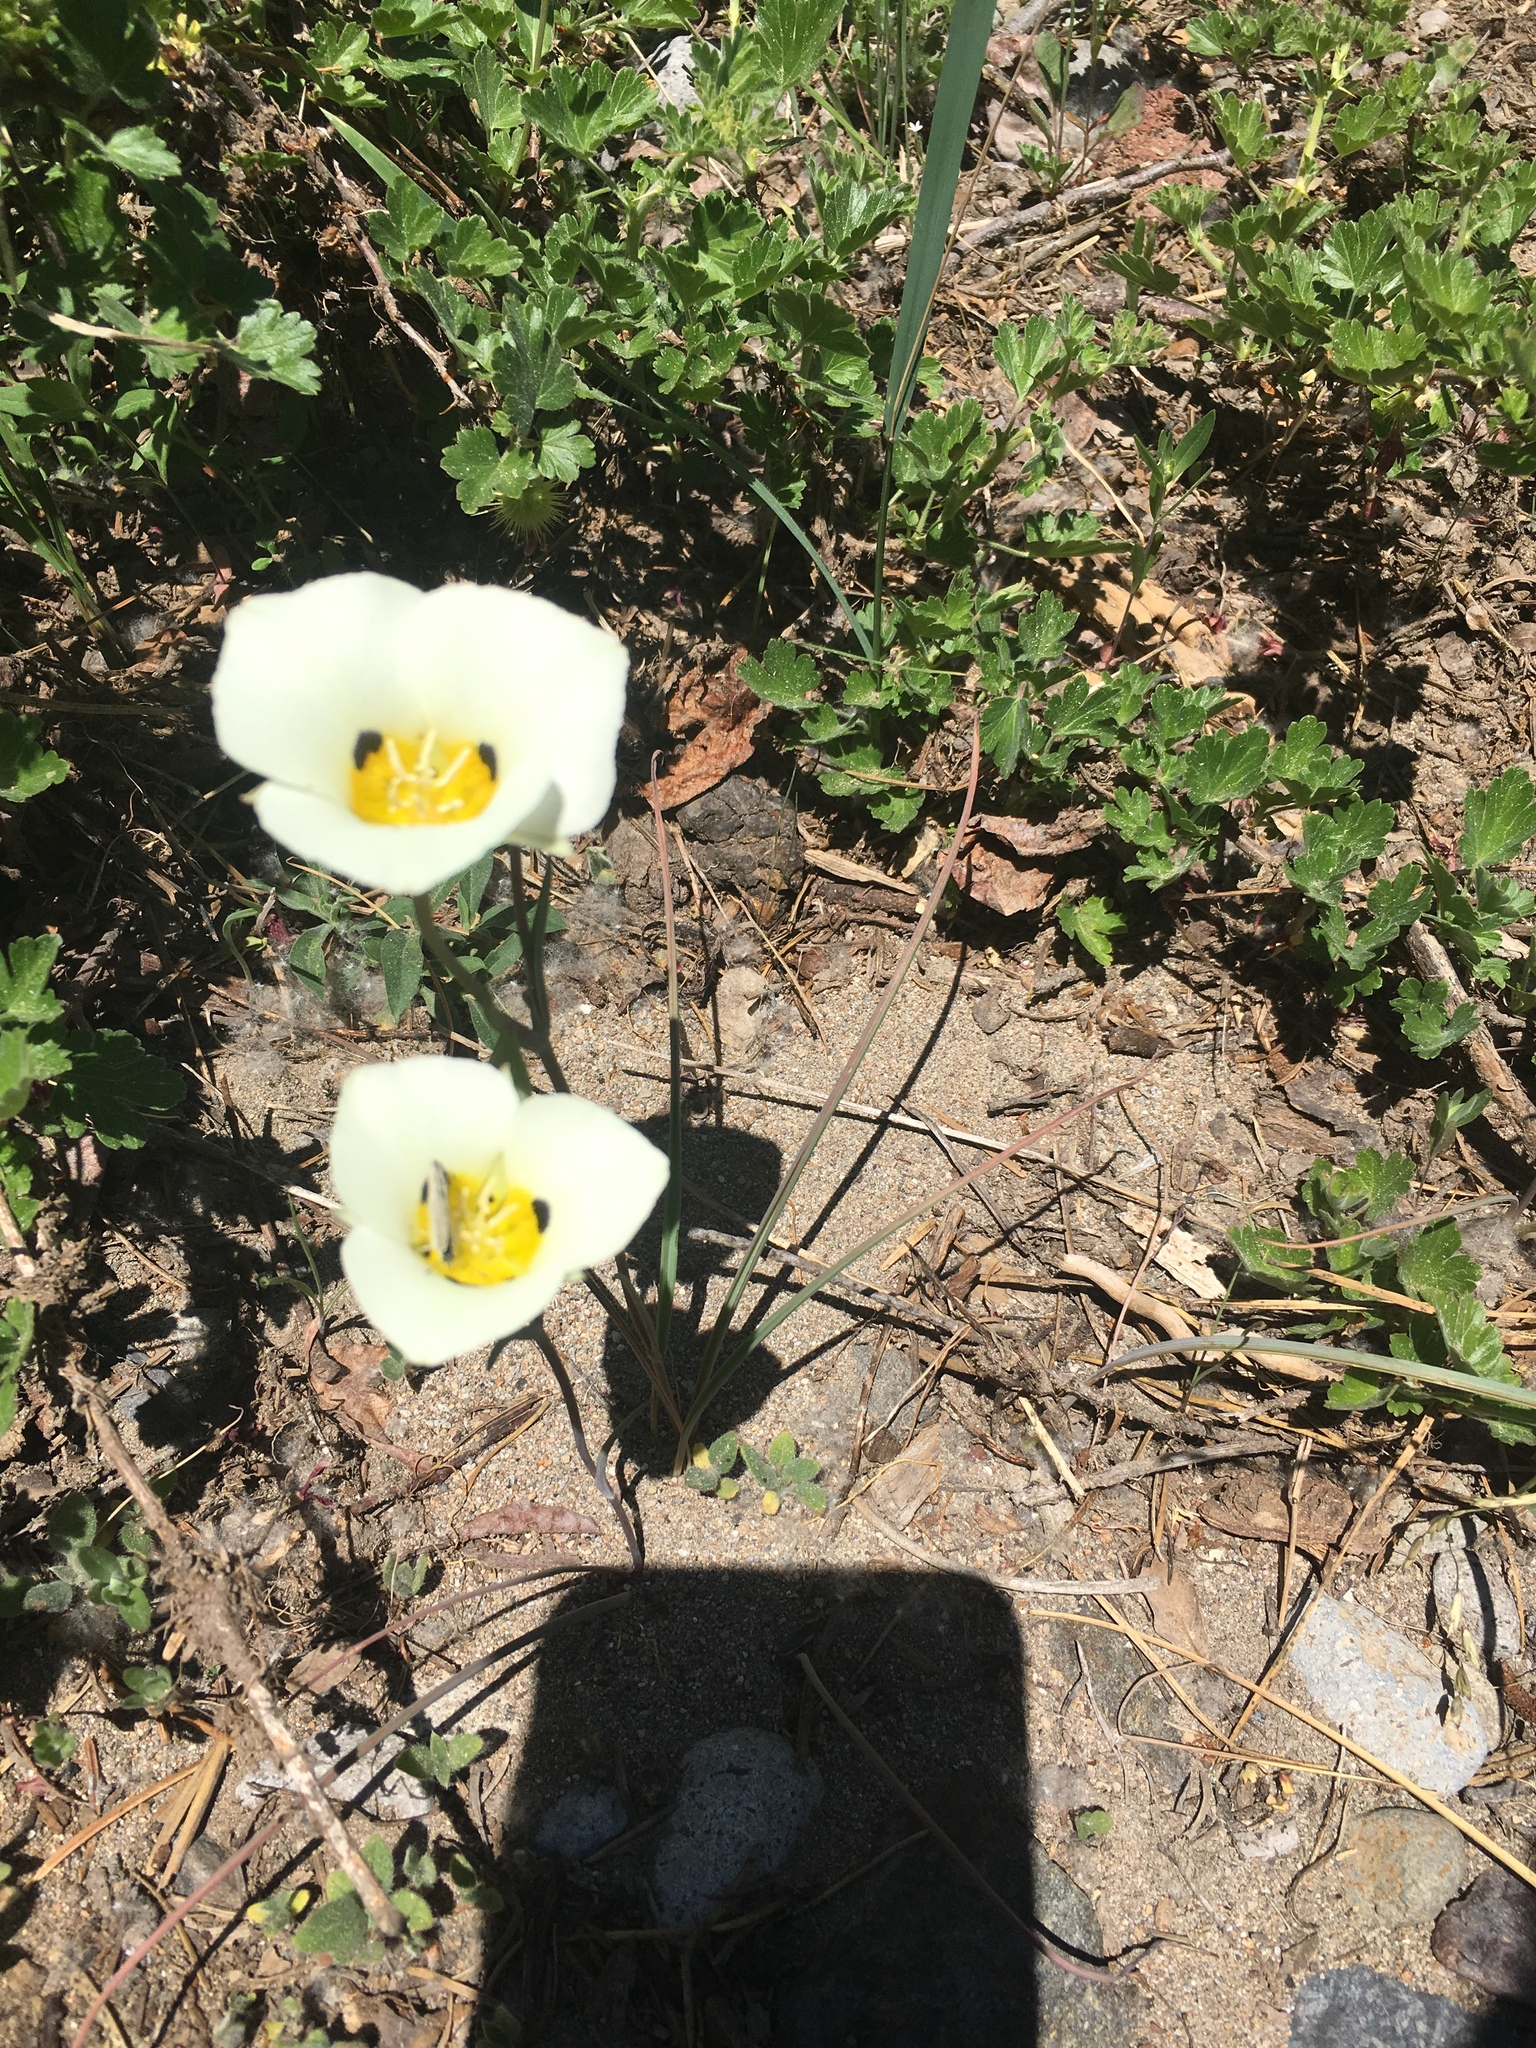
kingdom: Plantae
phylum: Tracheophyta
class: Liliopsida
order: Liliales
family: Liliaceae
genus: Calochortus
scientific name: Calochortus leichtlinii
